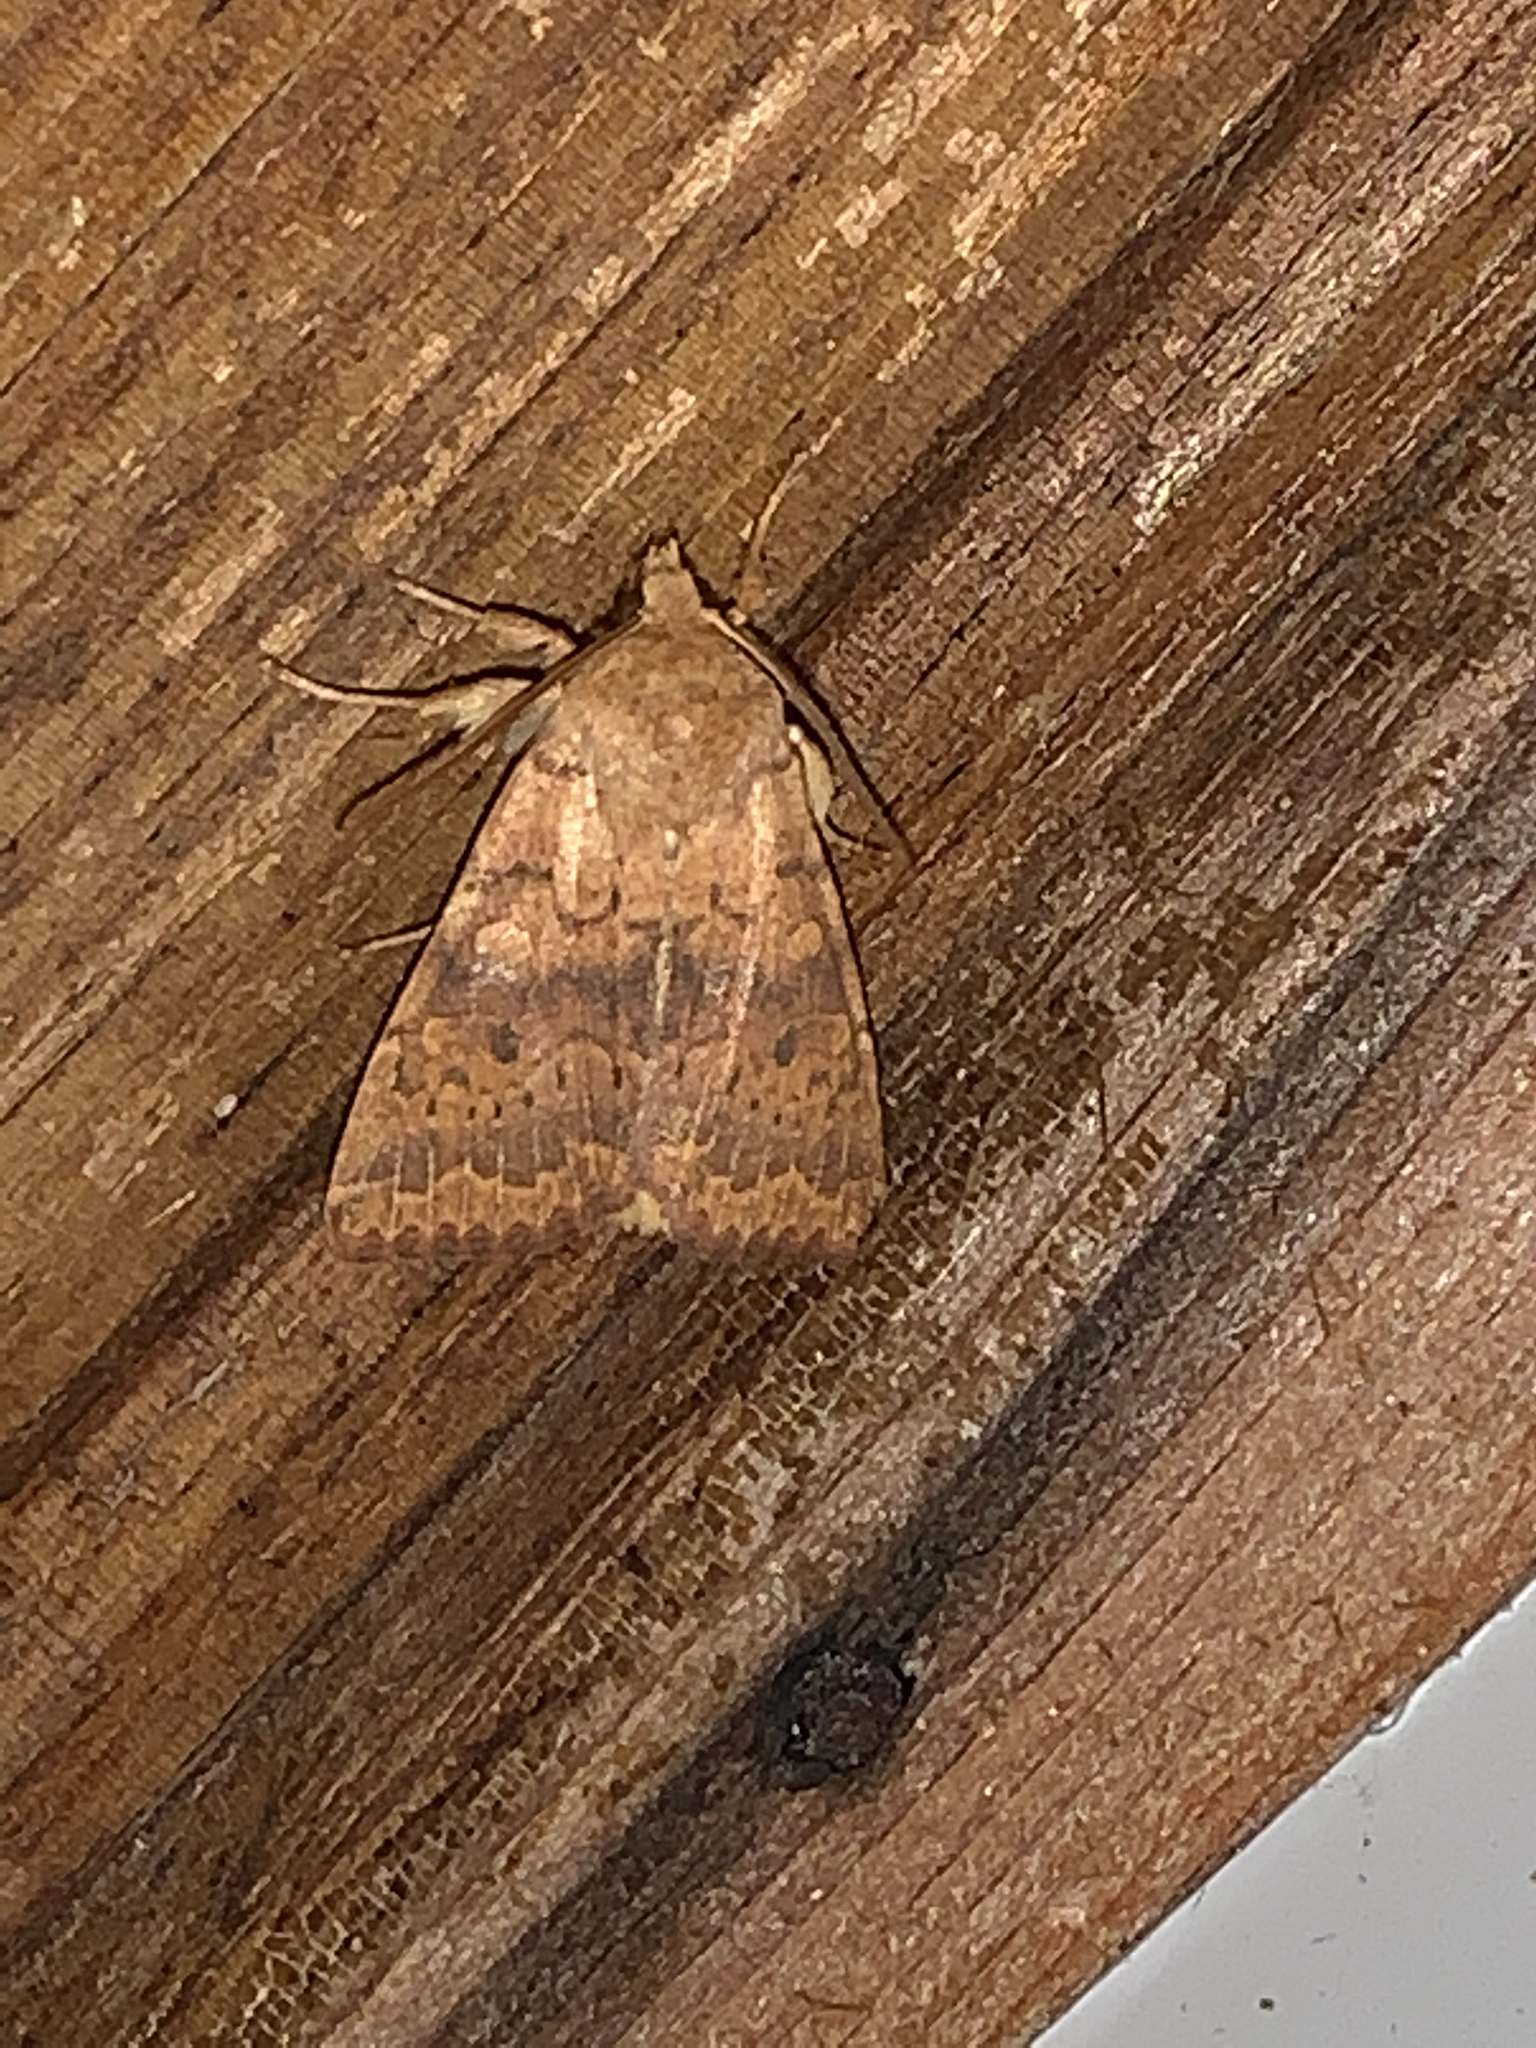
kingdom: Animalia
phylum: Arthropoda
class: Insecta
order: Lepidoptera
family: Noctuidae
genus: Agrochola
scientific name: Agrochola bicolorago
